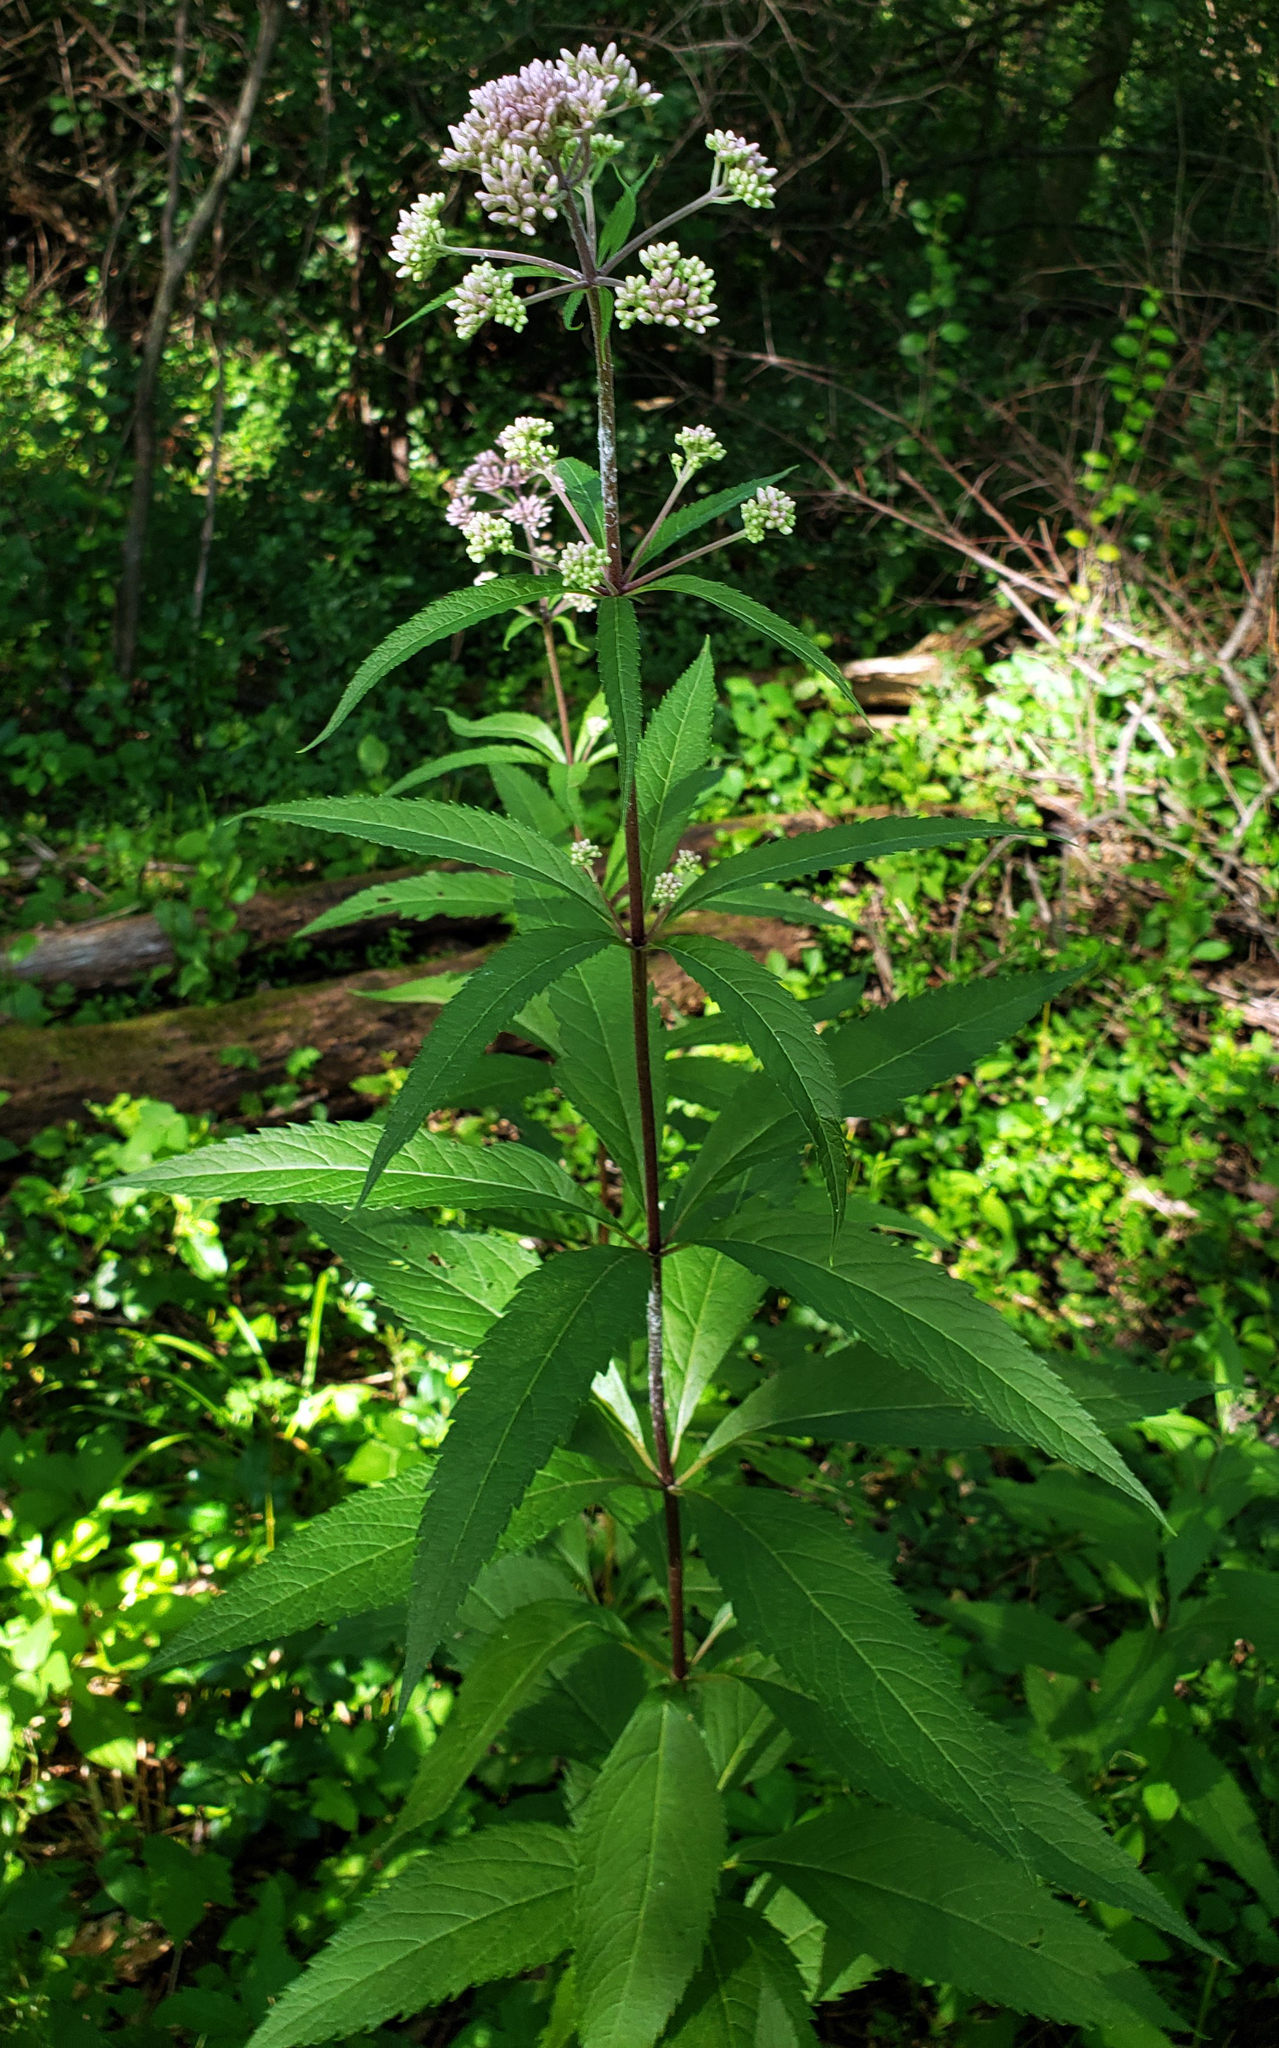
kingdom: Plantae
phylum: Tracheophyta
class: Magnoliopsida
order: Asterales
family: Asteraceae
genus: Eutrochium
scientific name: Eutrochium purpureum
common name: Gravelroot
